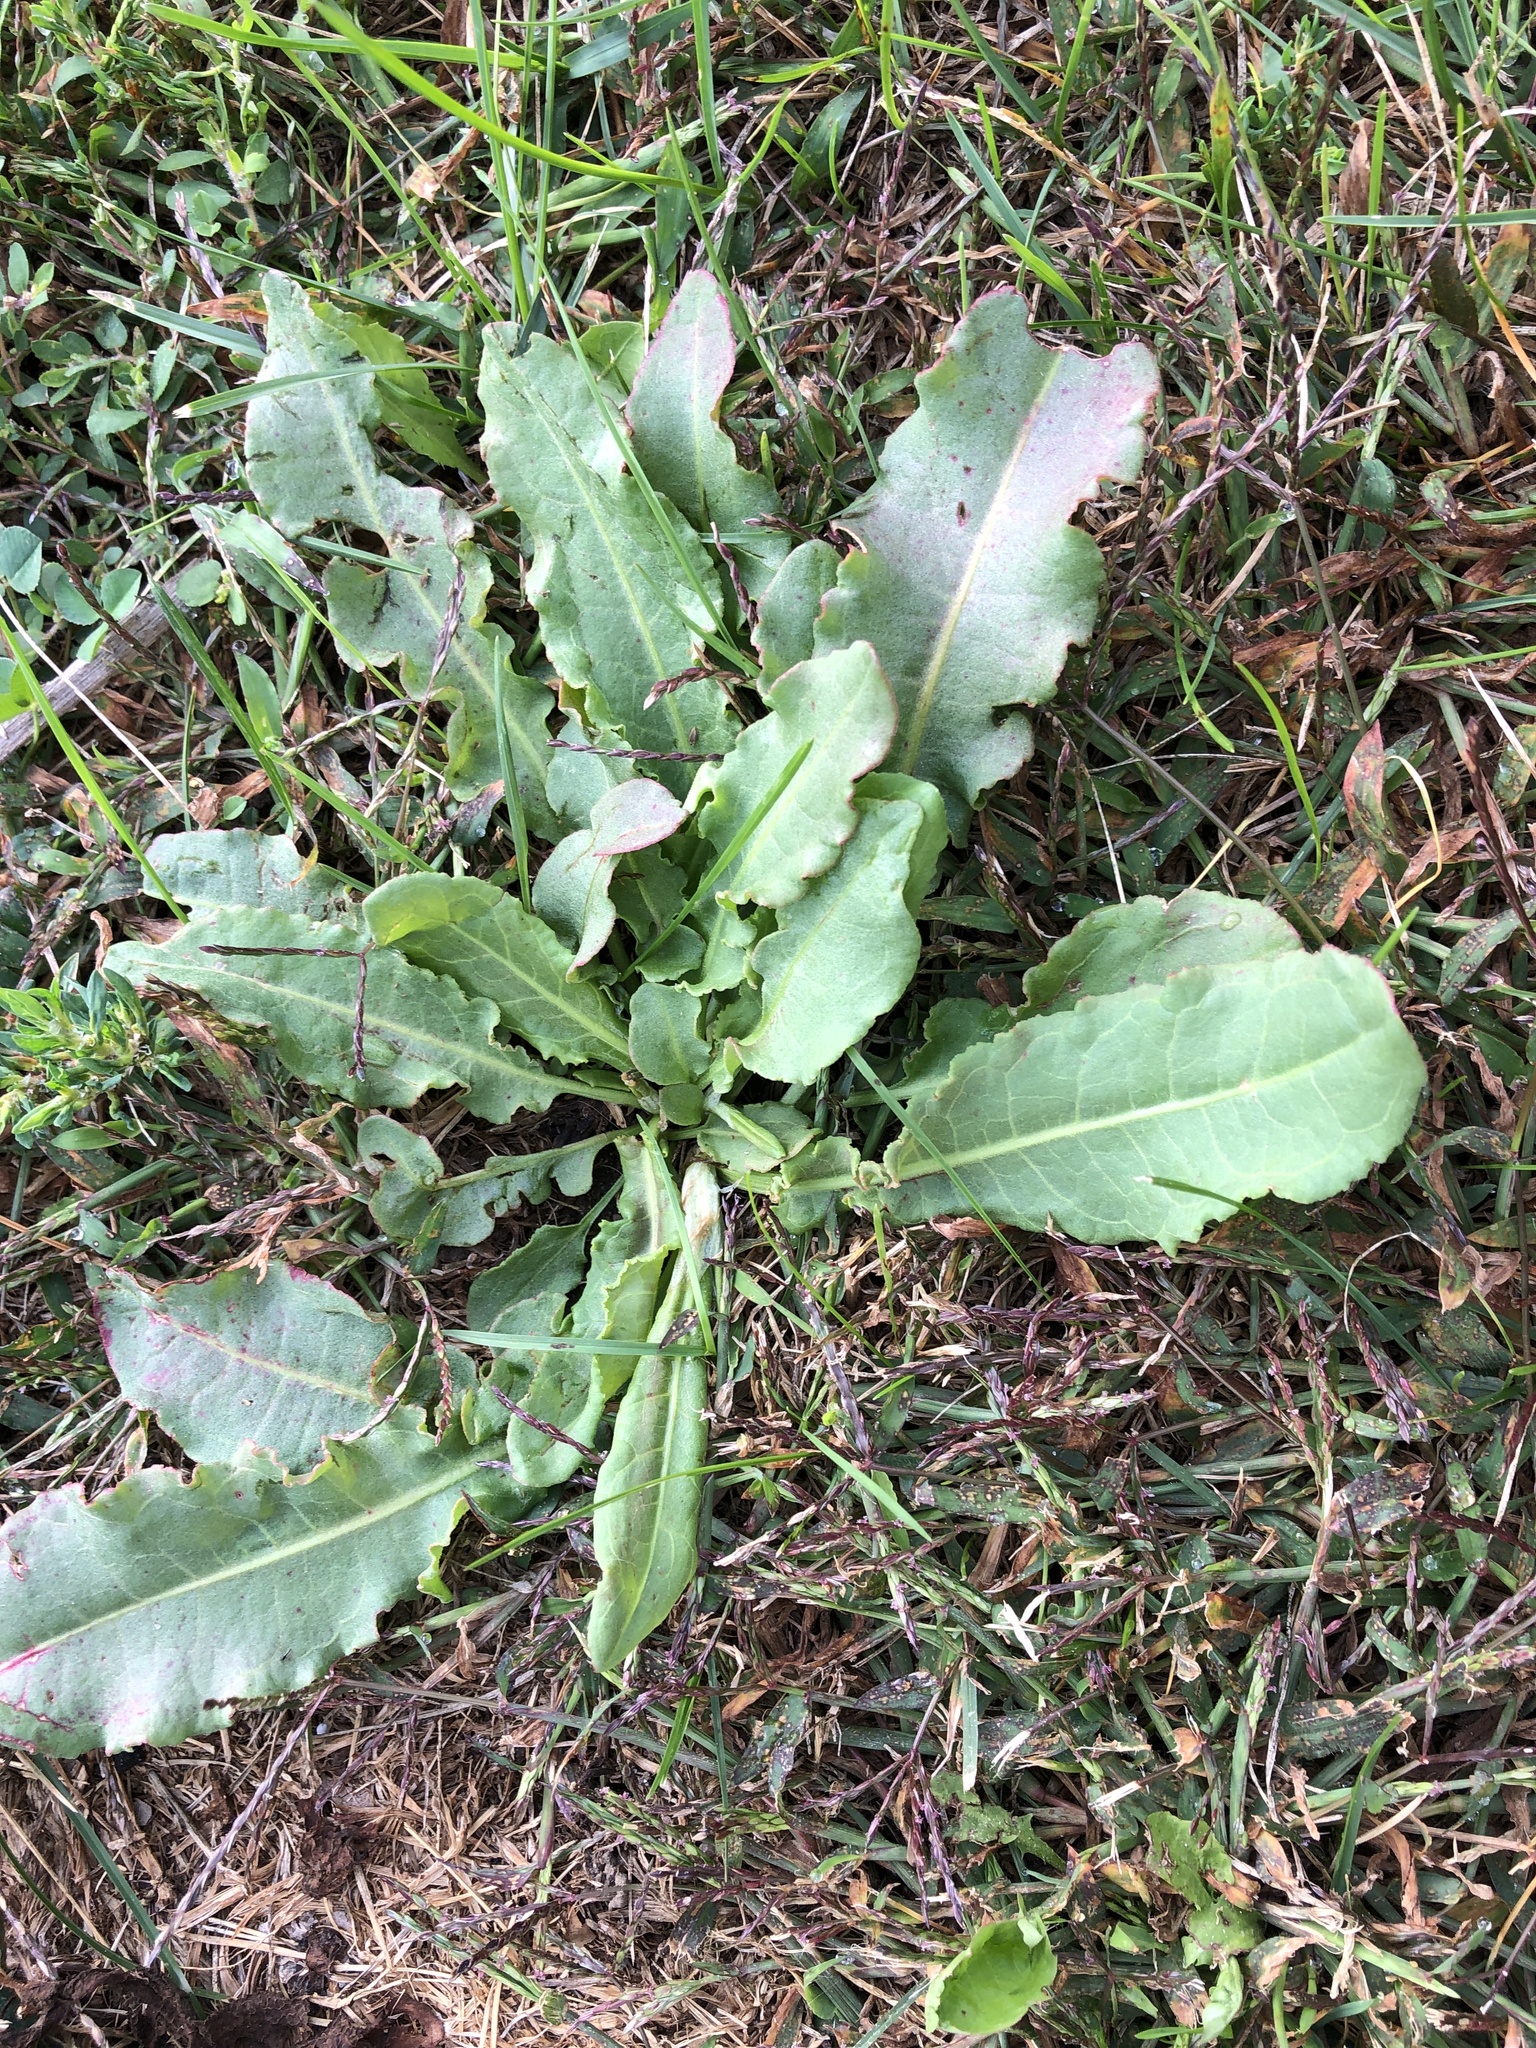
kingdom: Plantae
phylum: Tracheophyta
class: Magnoliopsida
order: Caryophyllales
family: Polygonaceae
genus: Rumex
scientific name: Rumex crispus
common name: Curled dock
